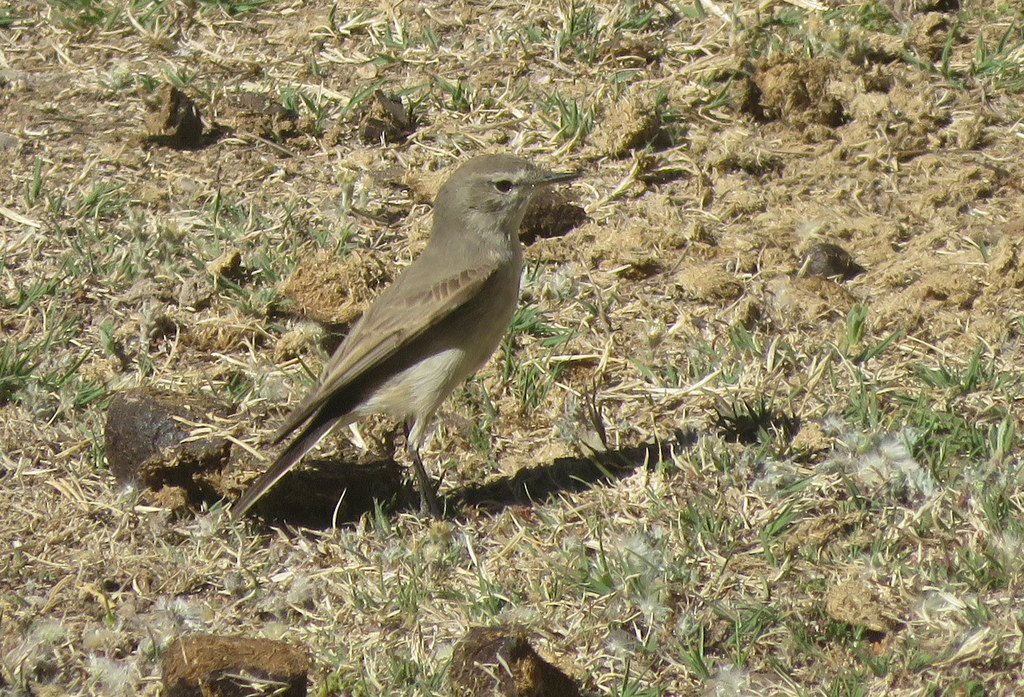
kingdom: Animalia
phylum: Chordata
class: Aves
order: Passeriformes
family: Tyrannidae
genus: Muscisaxicola
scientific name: Muscisaxicola maculirostris
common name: Spot-billed ground tyrant
